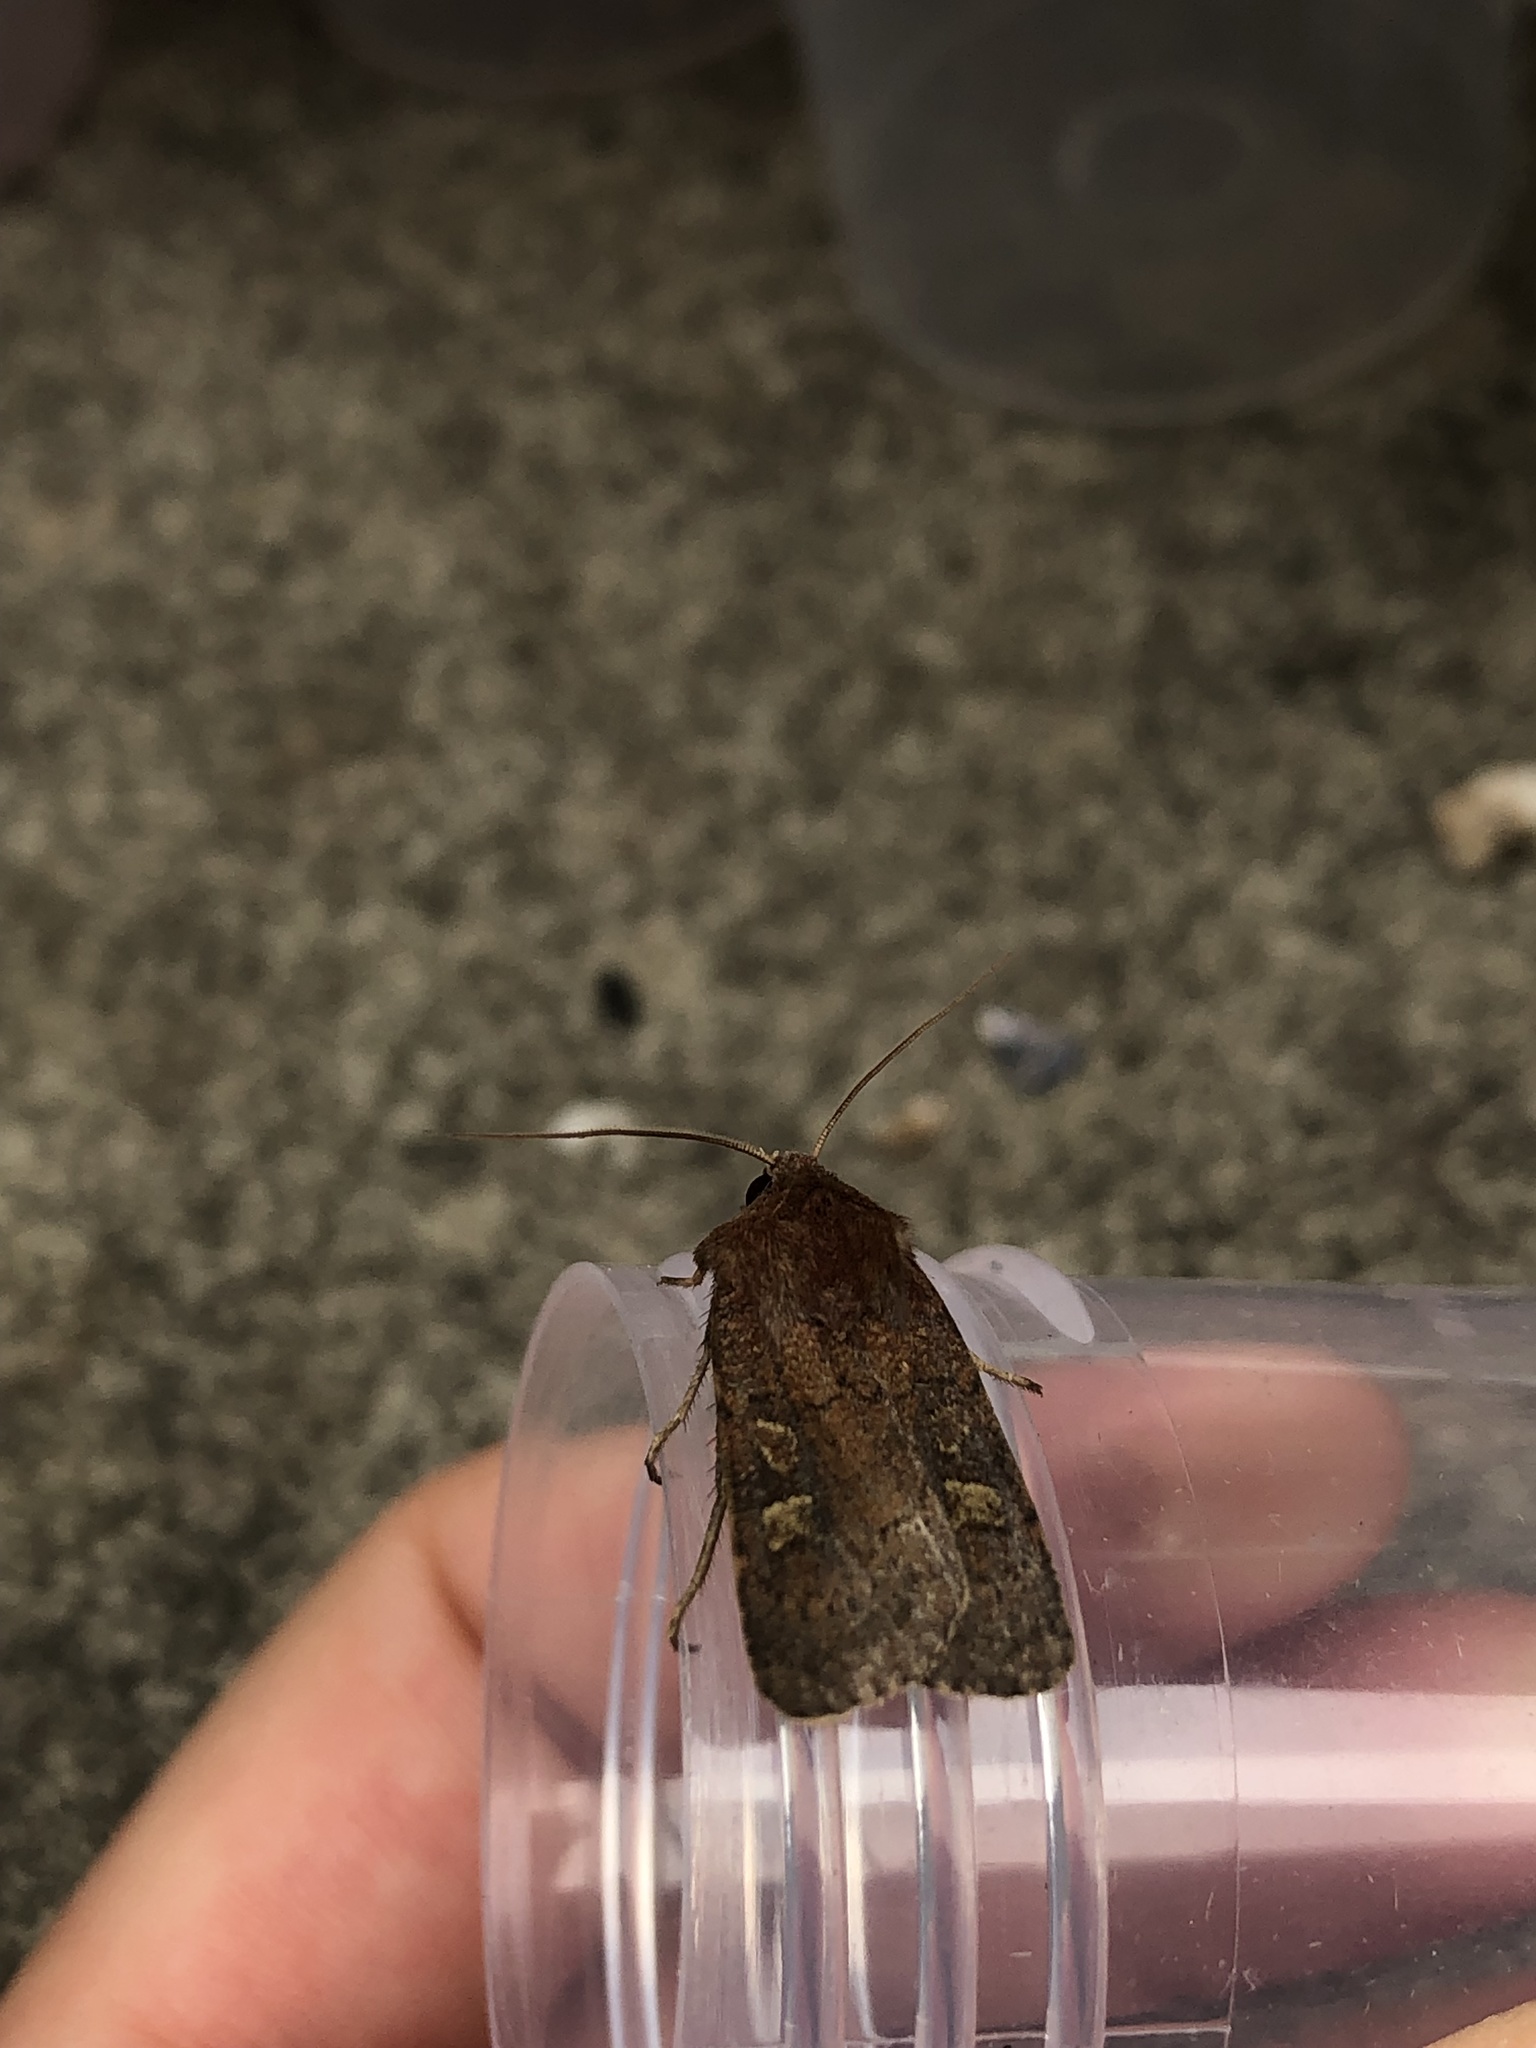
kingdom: Animalia
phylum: Arthropoda
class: Insecta
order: Lepidoptera
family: Noctuidae
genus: Xestia
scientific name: Xestia xanthographa
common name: Square-spot rustic
